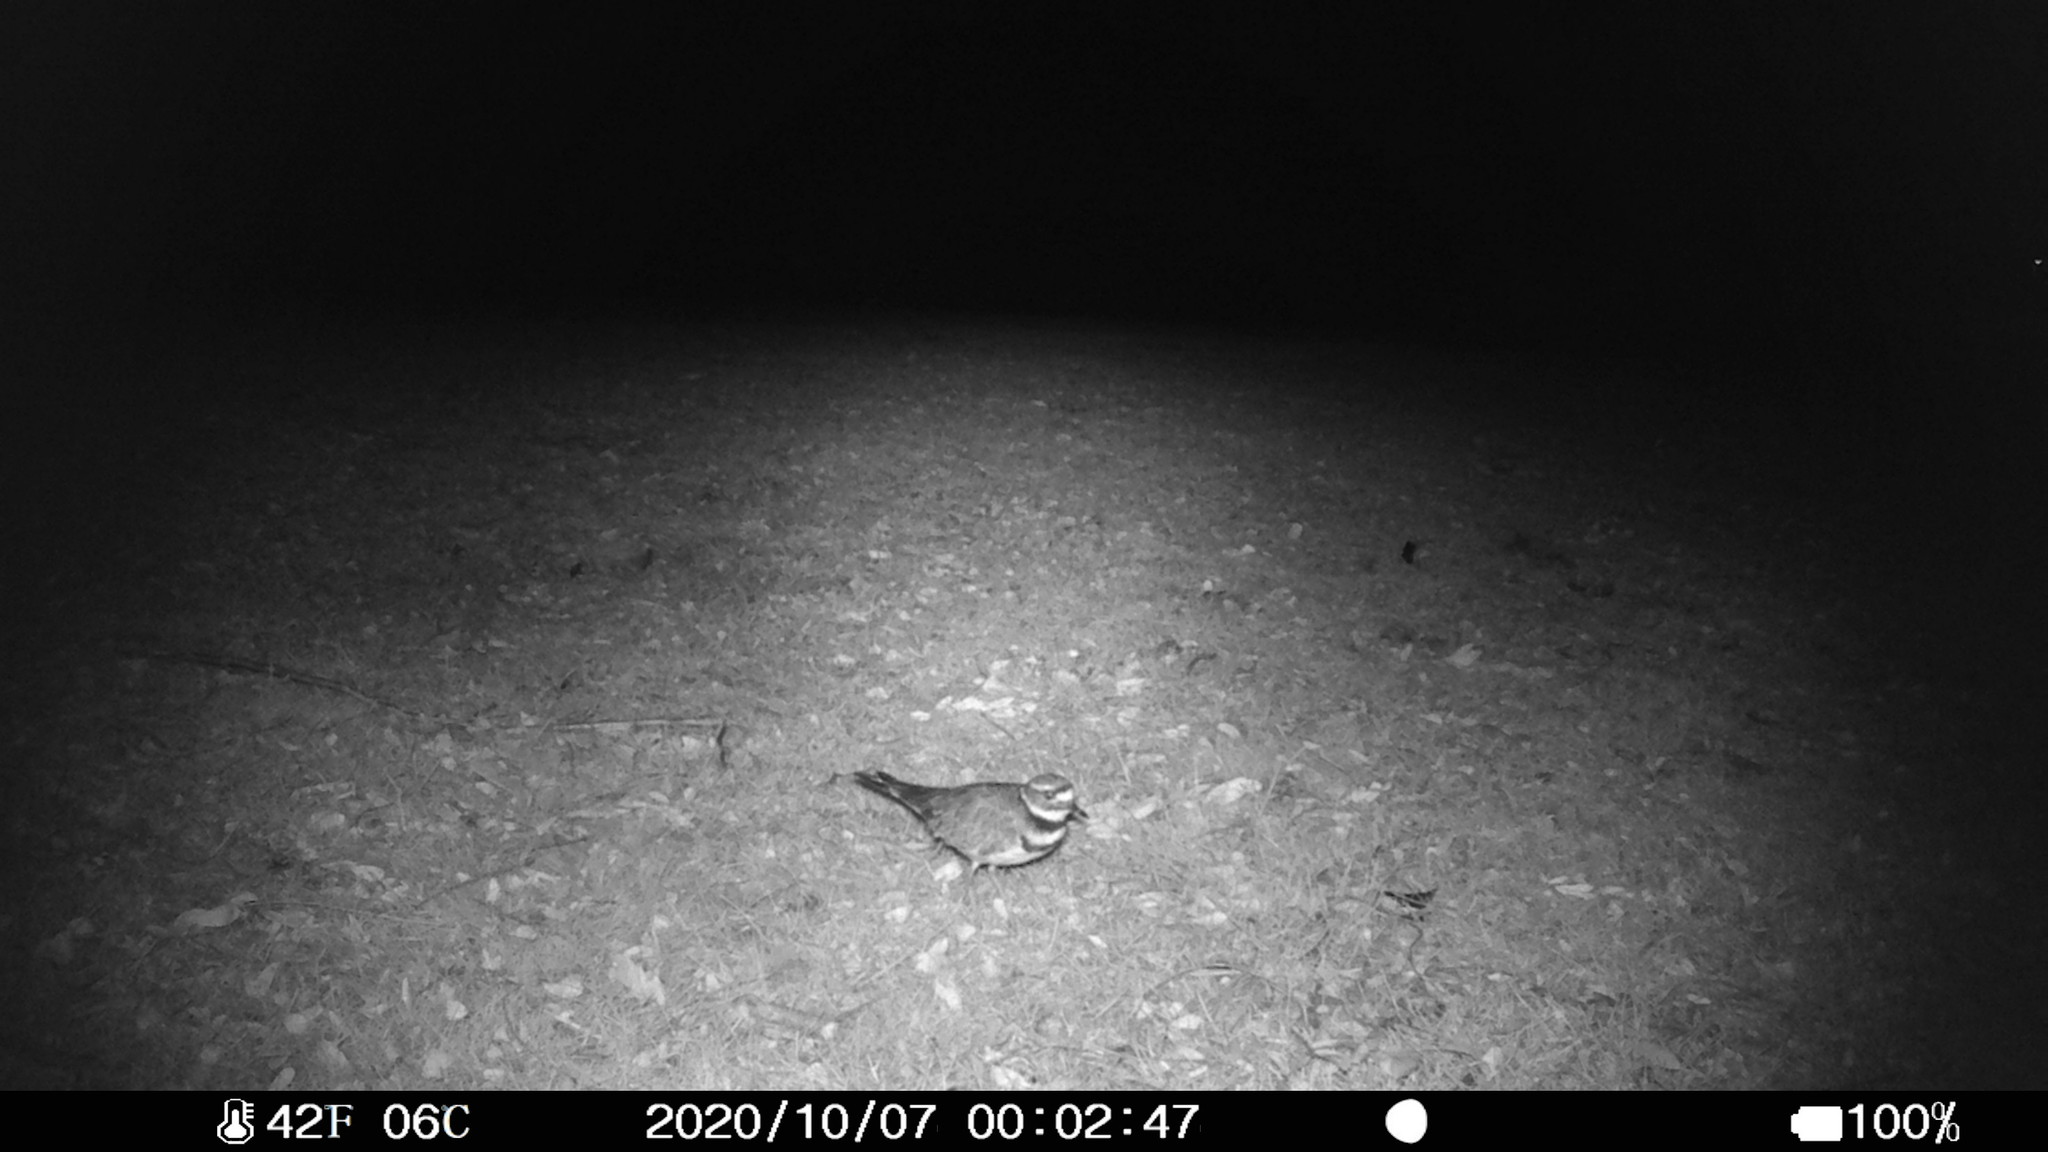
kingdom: Animalia
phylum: Chordata
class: Aves
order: Charadriiformes
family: Charadriidae
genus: Charadrius
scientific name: Charadrius vociferus
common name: Killdeer
